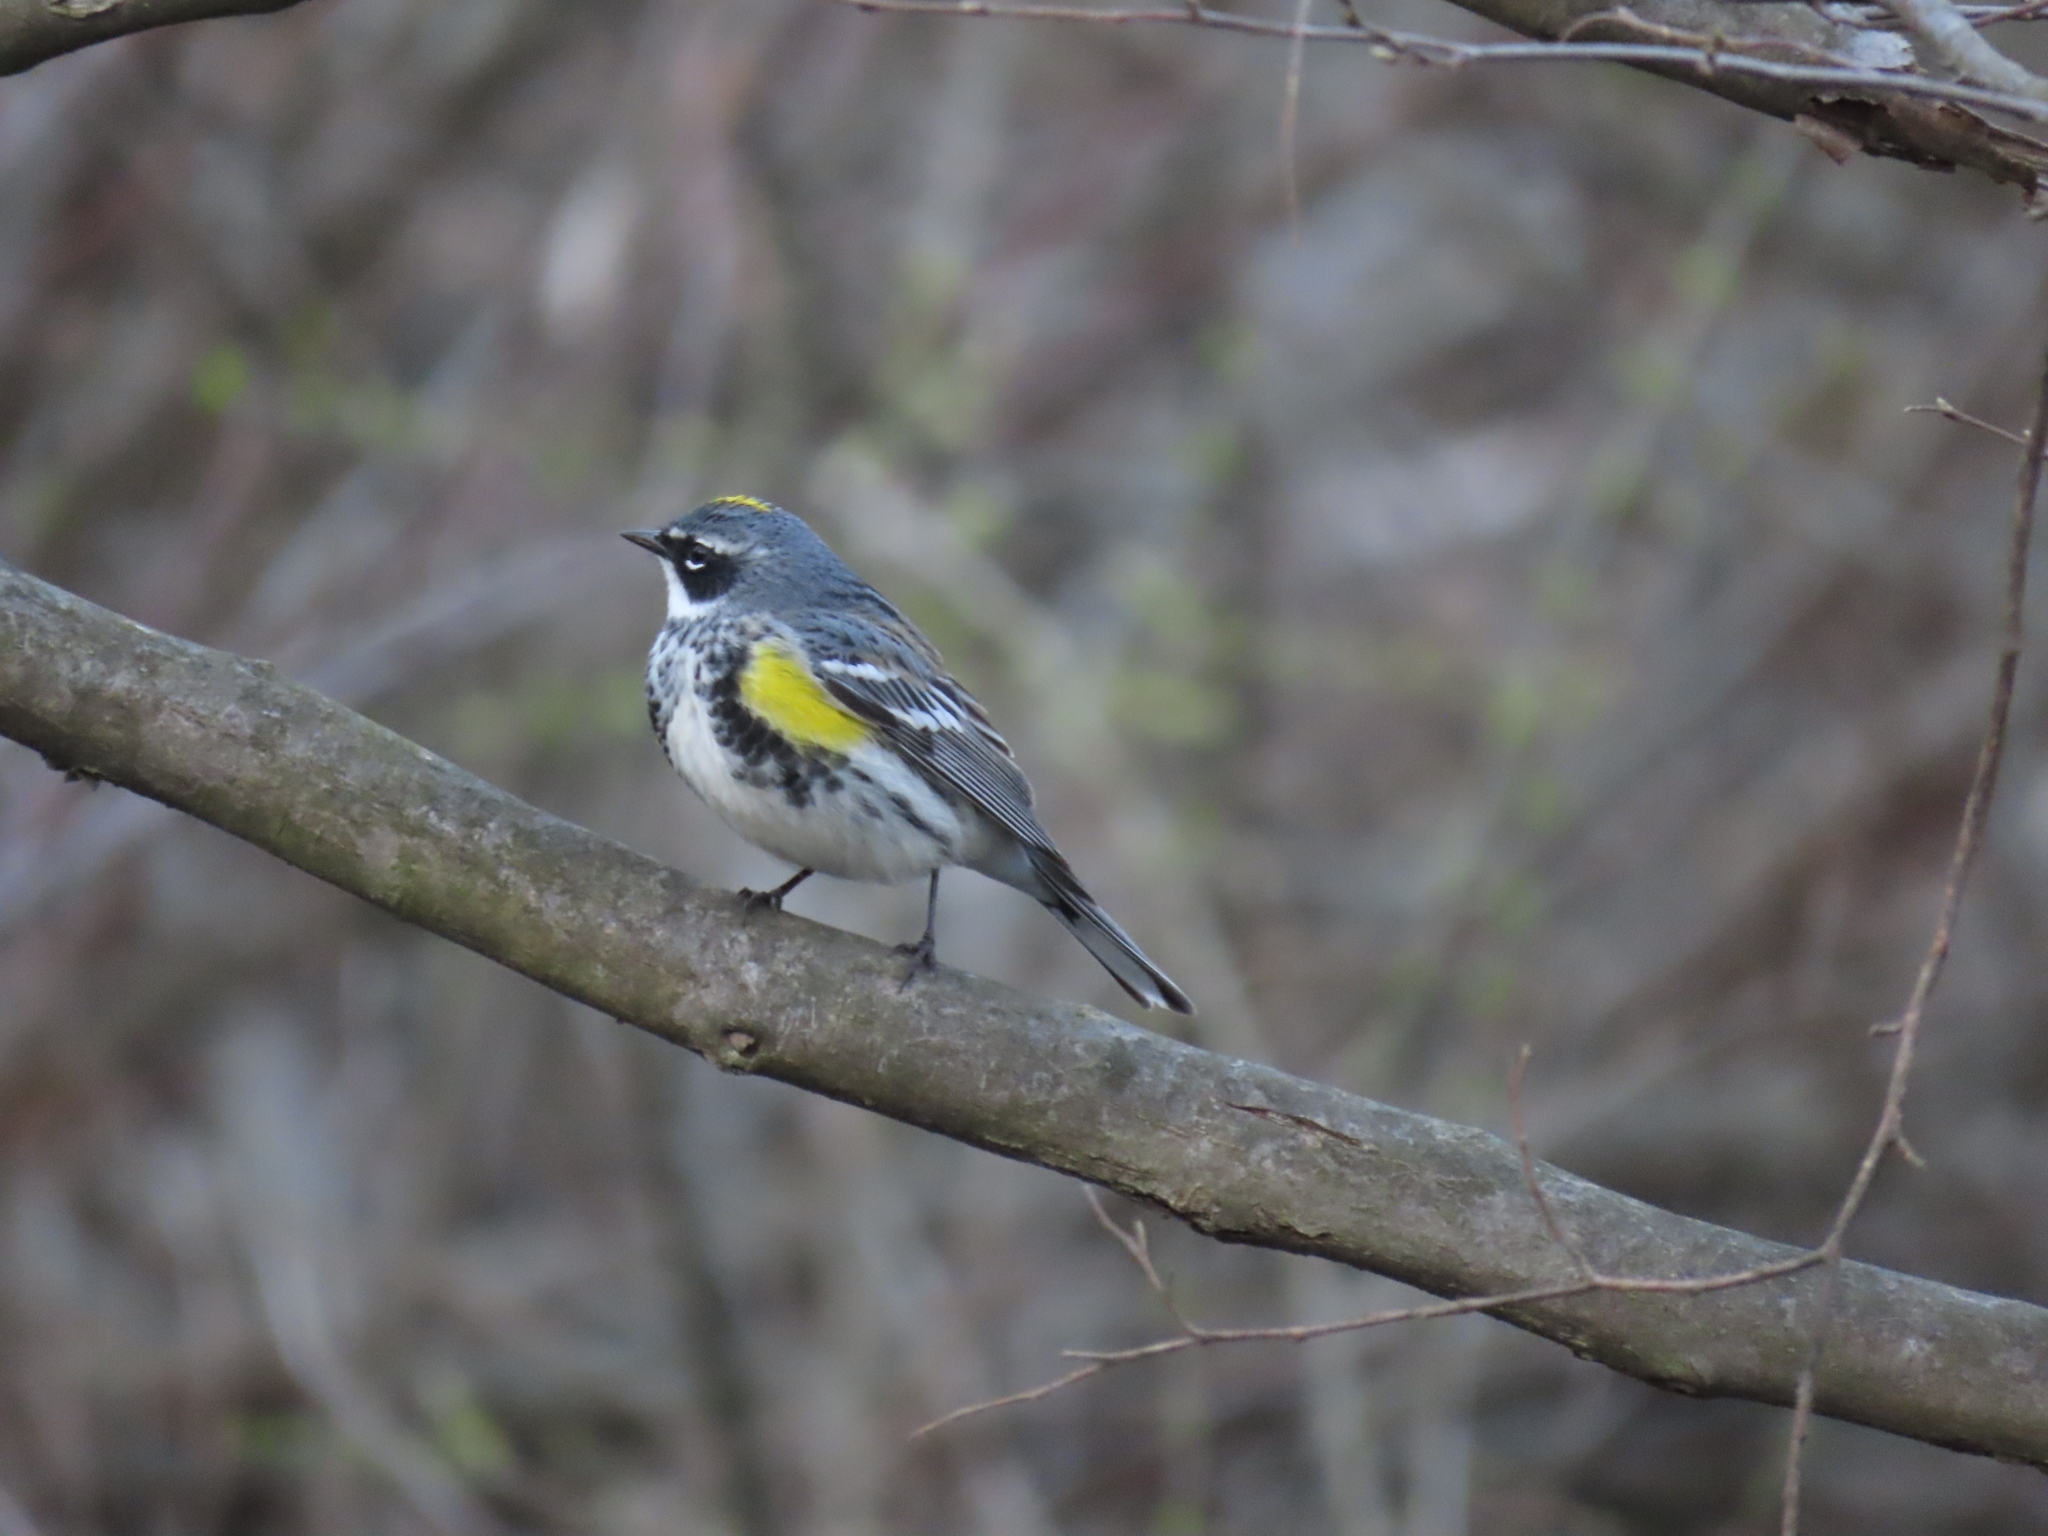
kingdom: Animalia
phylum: Chordata
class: Aves
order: Passeriformes
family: Parulidae
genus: Setophaga
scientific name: Setophaga coronata
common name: Myrtle warbler
